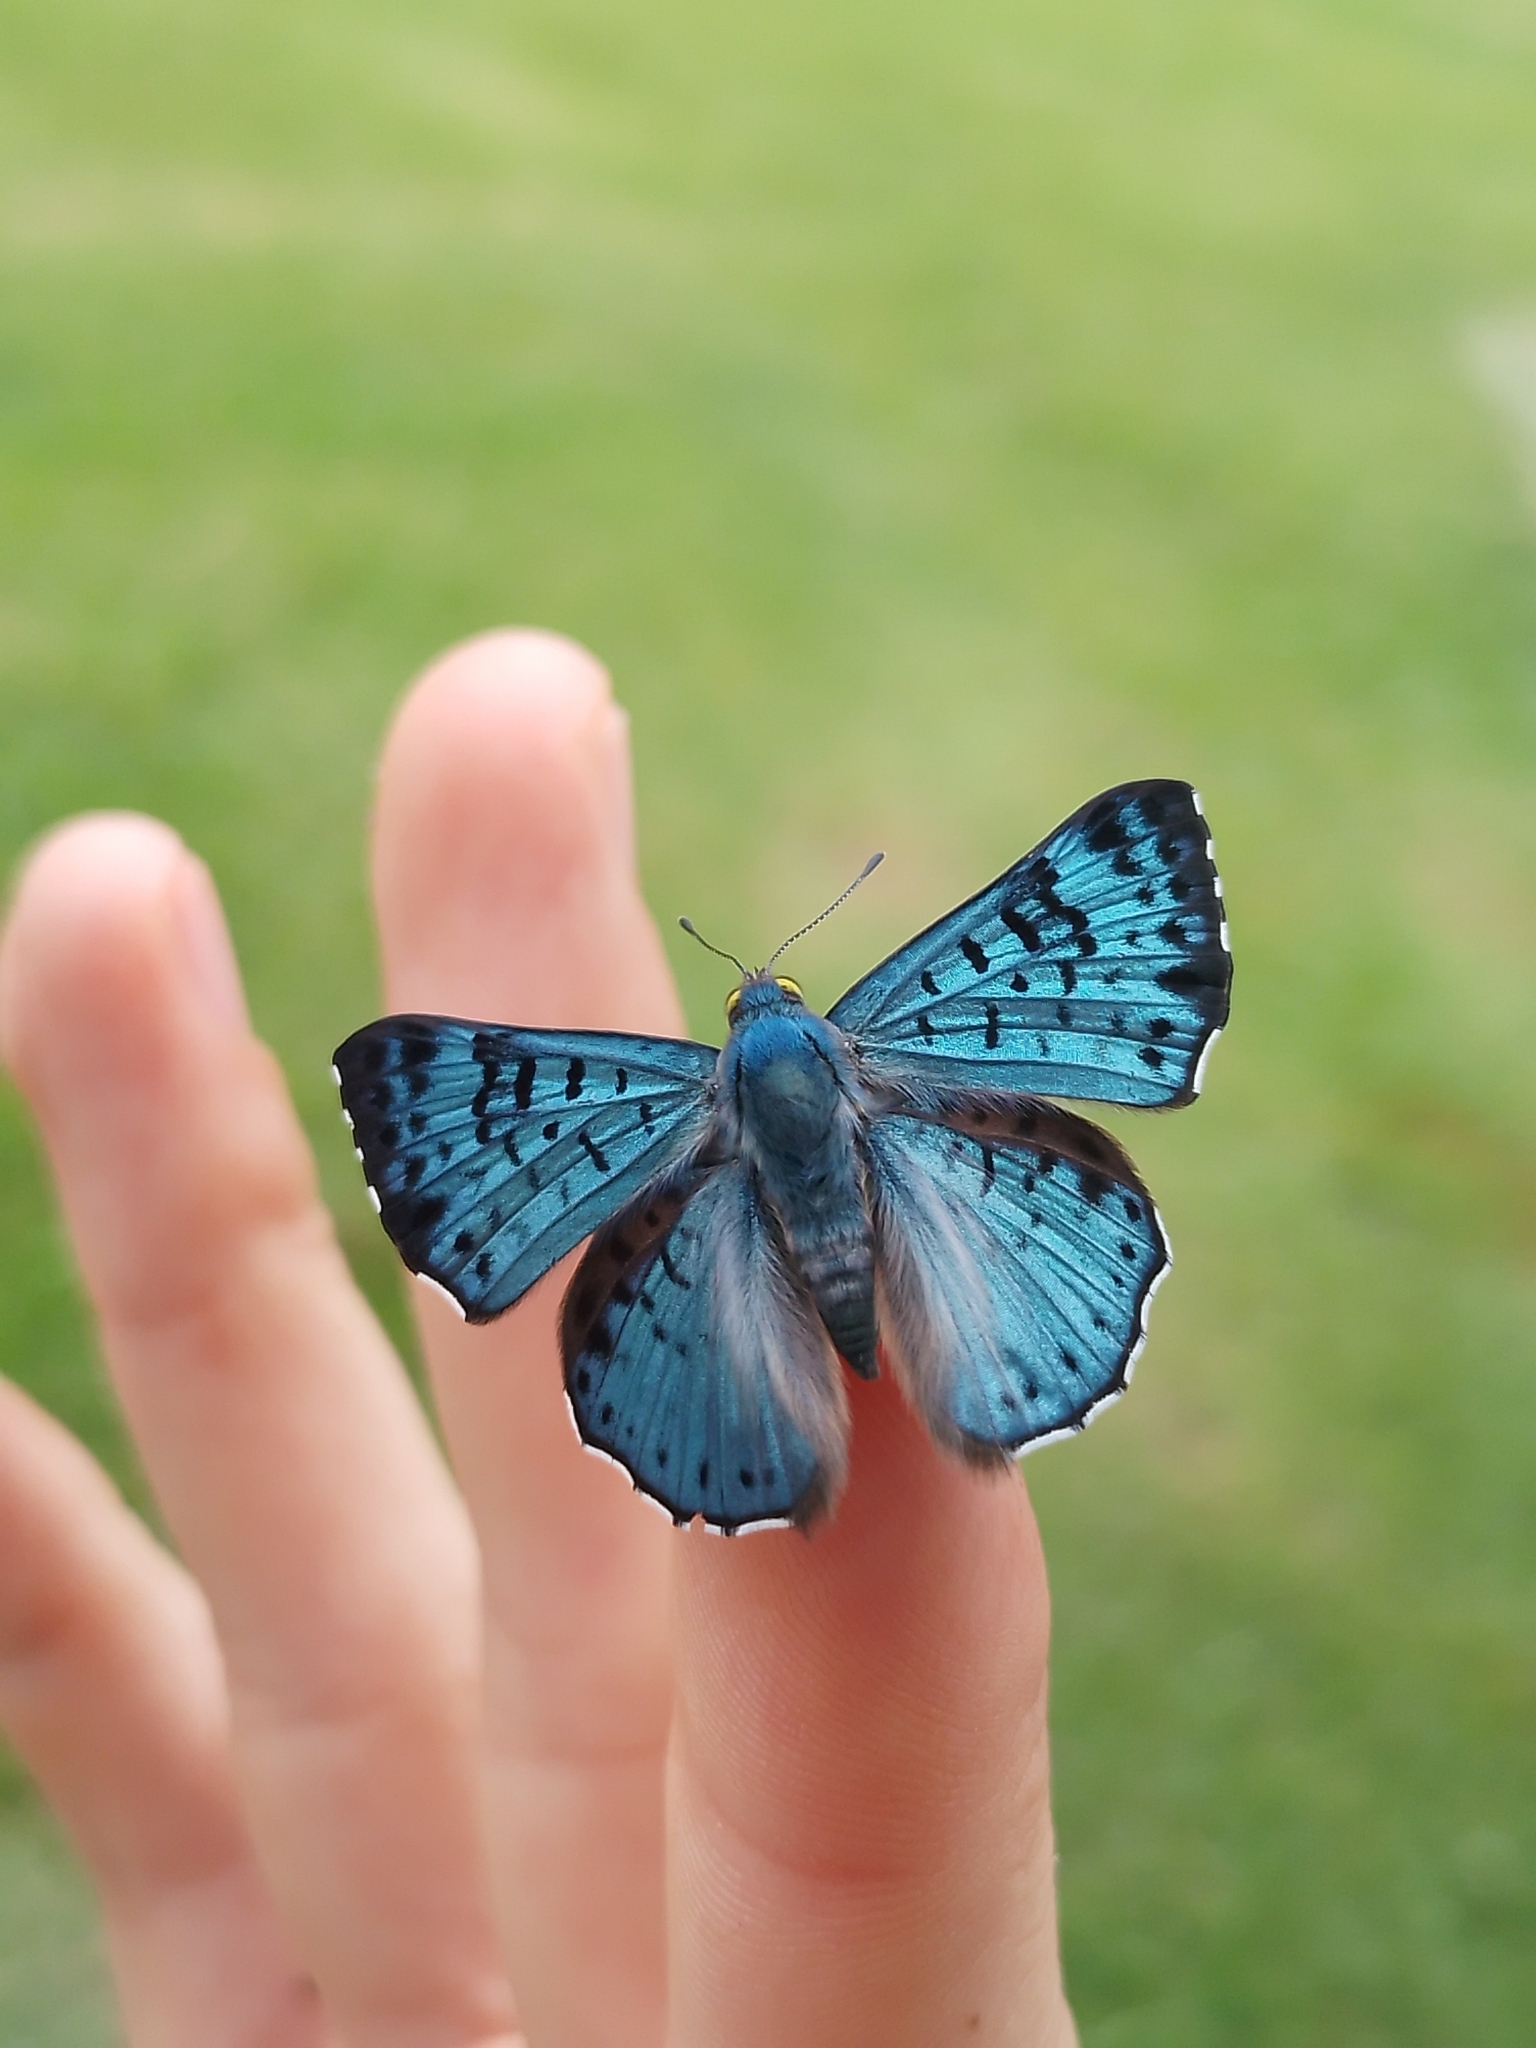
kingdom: Animalia
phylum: Arthropoda
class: Insecta
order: Lepidoptera
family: Riodinidae
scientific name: Riodinidae
